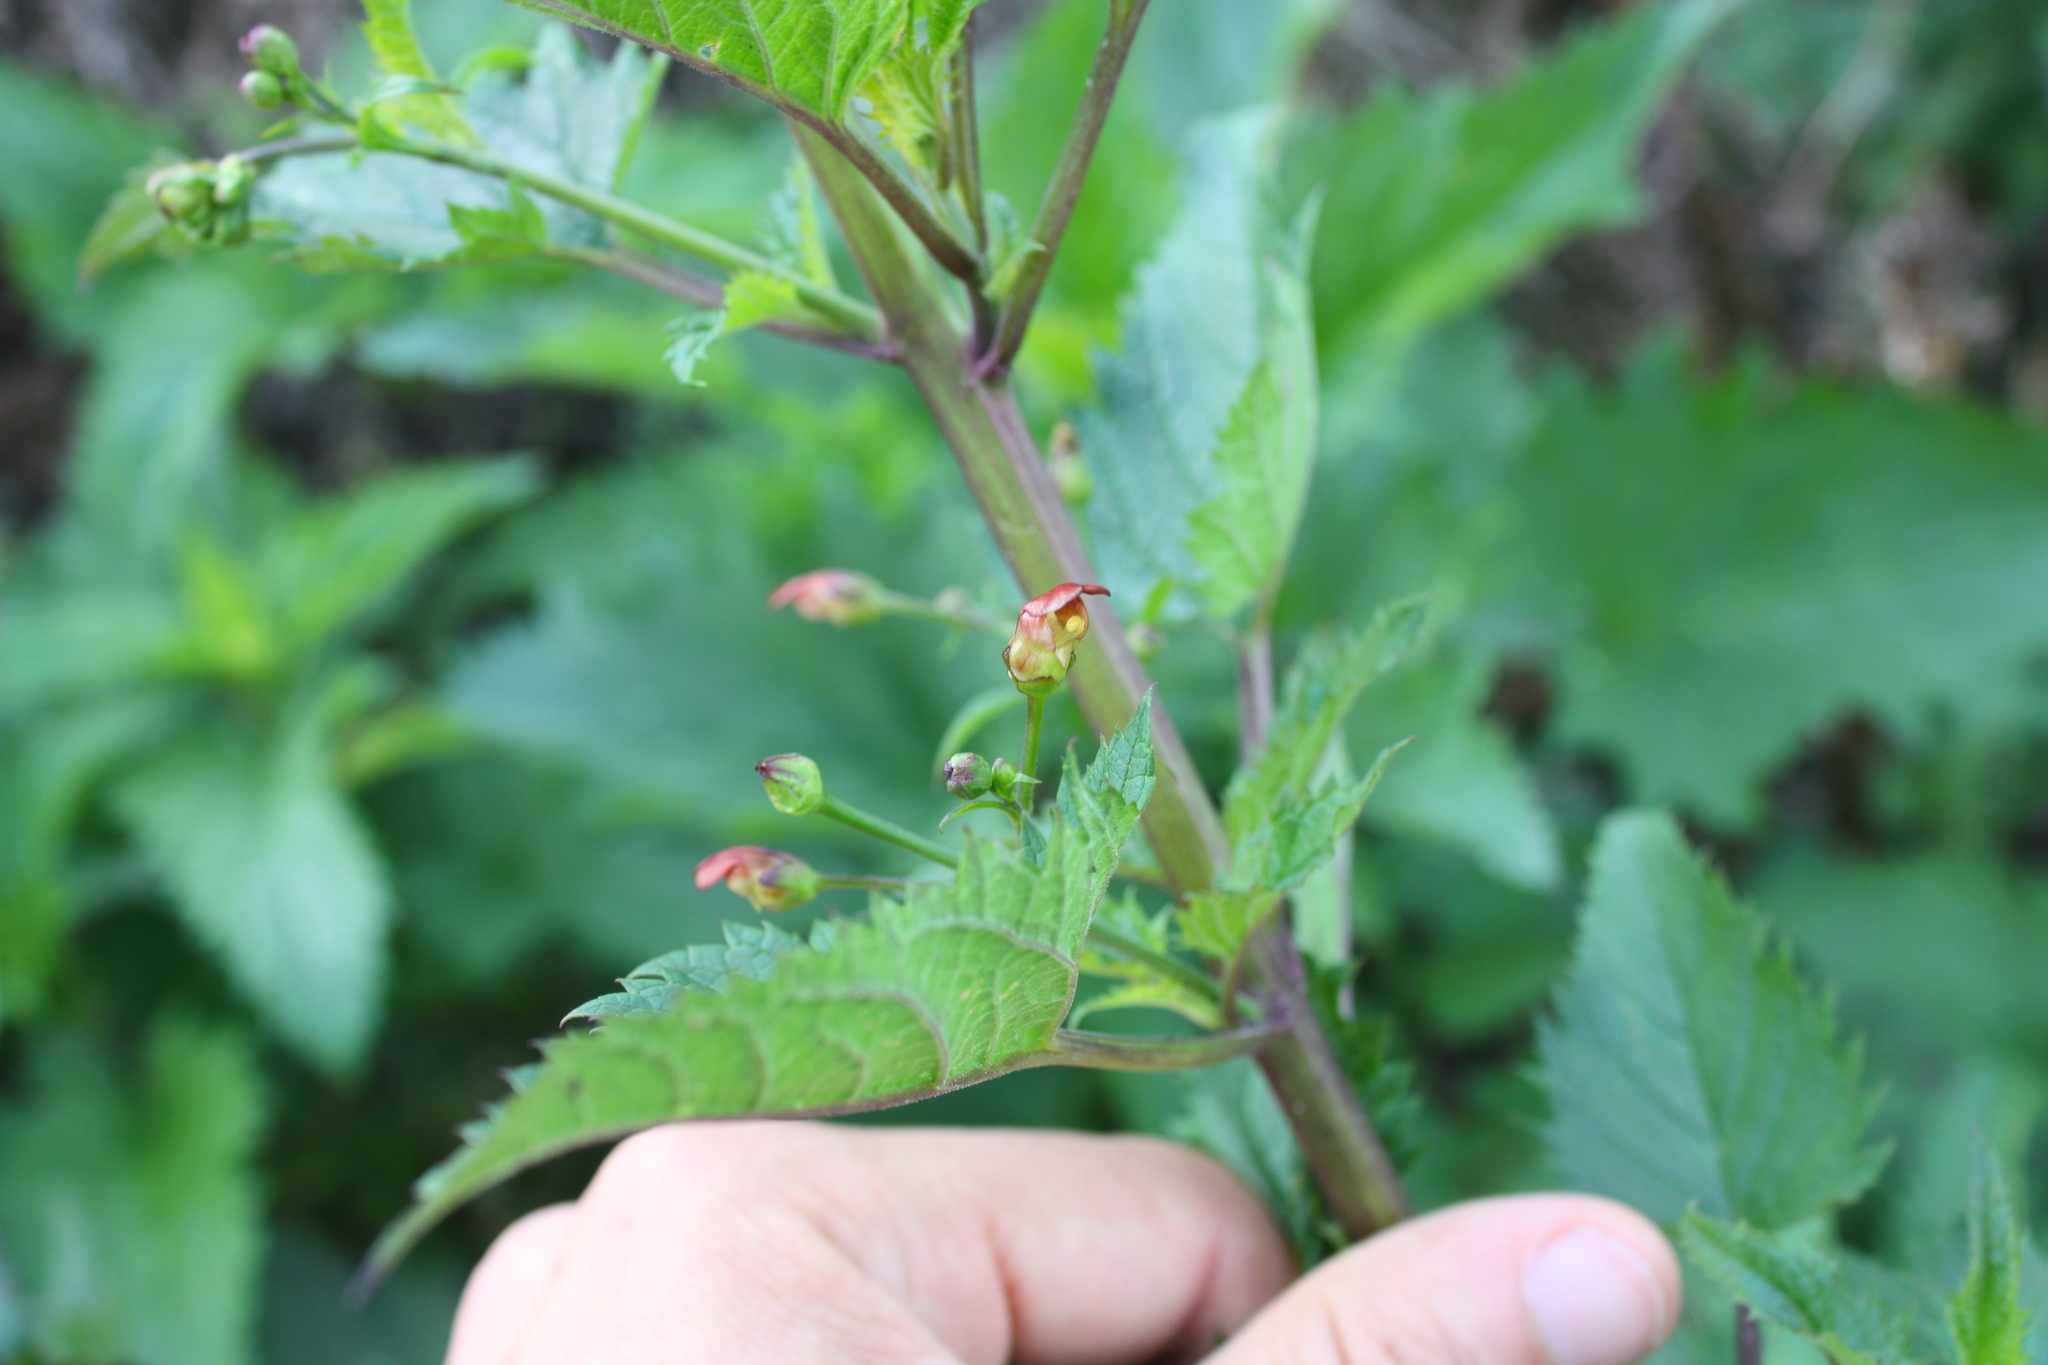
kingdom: Plantae
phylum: Tracheophyta
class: Magnoliopsida
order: Lamiales
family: Scrophulariaceae
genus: Scrophularia
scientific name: Scrophularia californica
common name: California figwort
